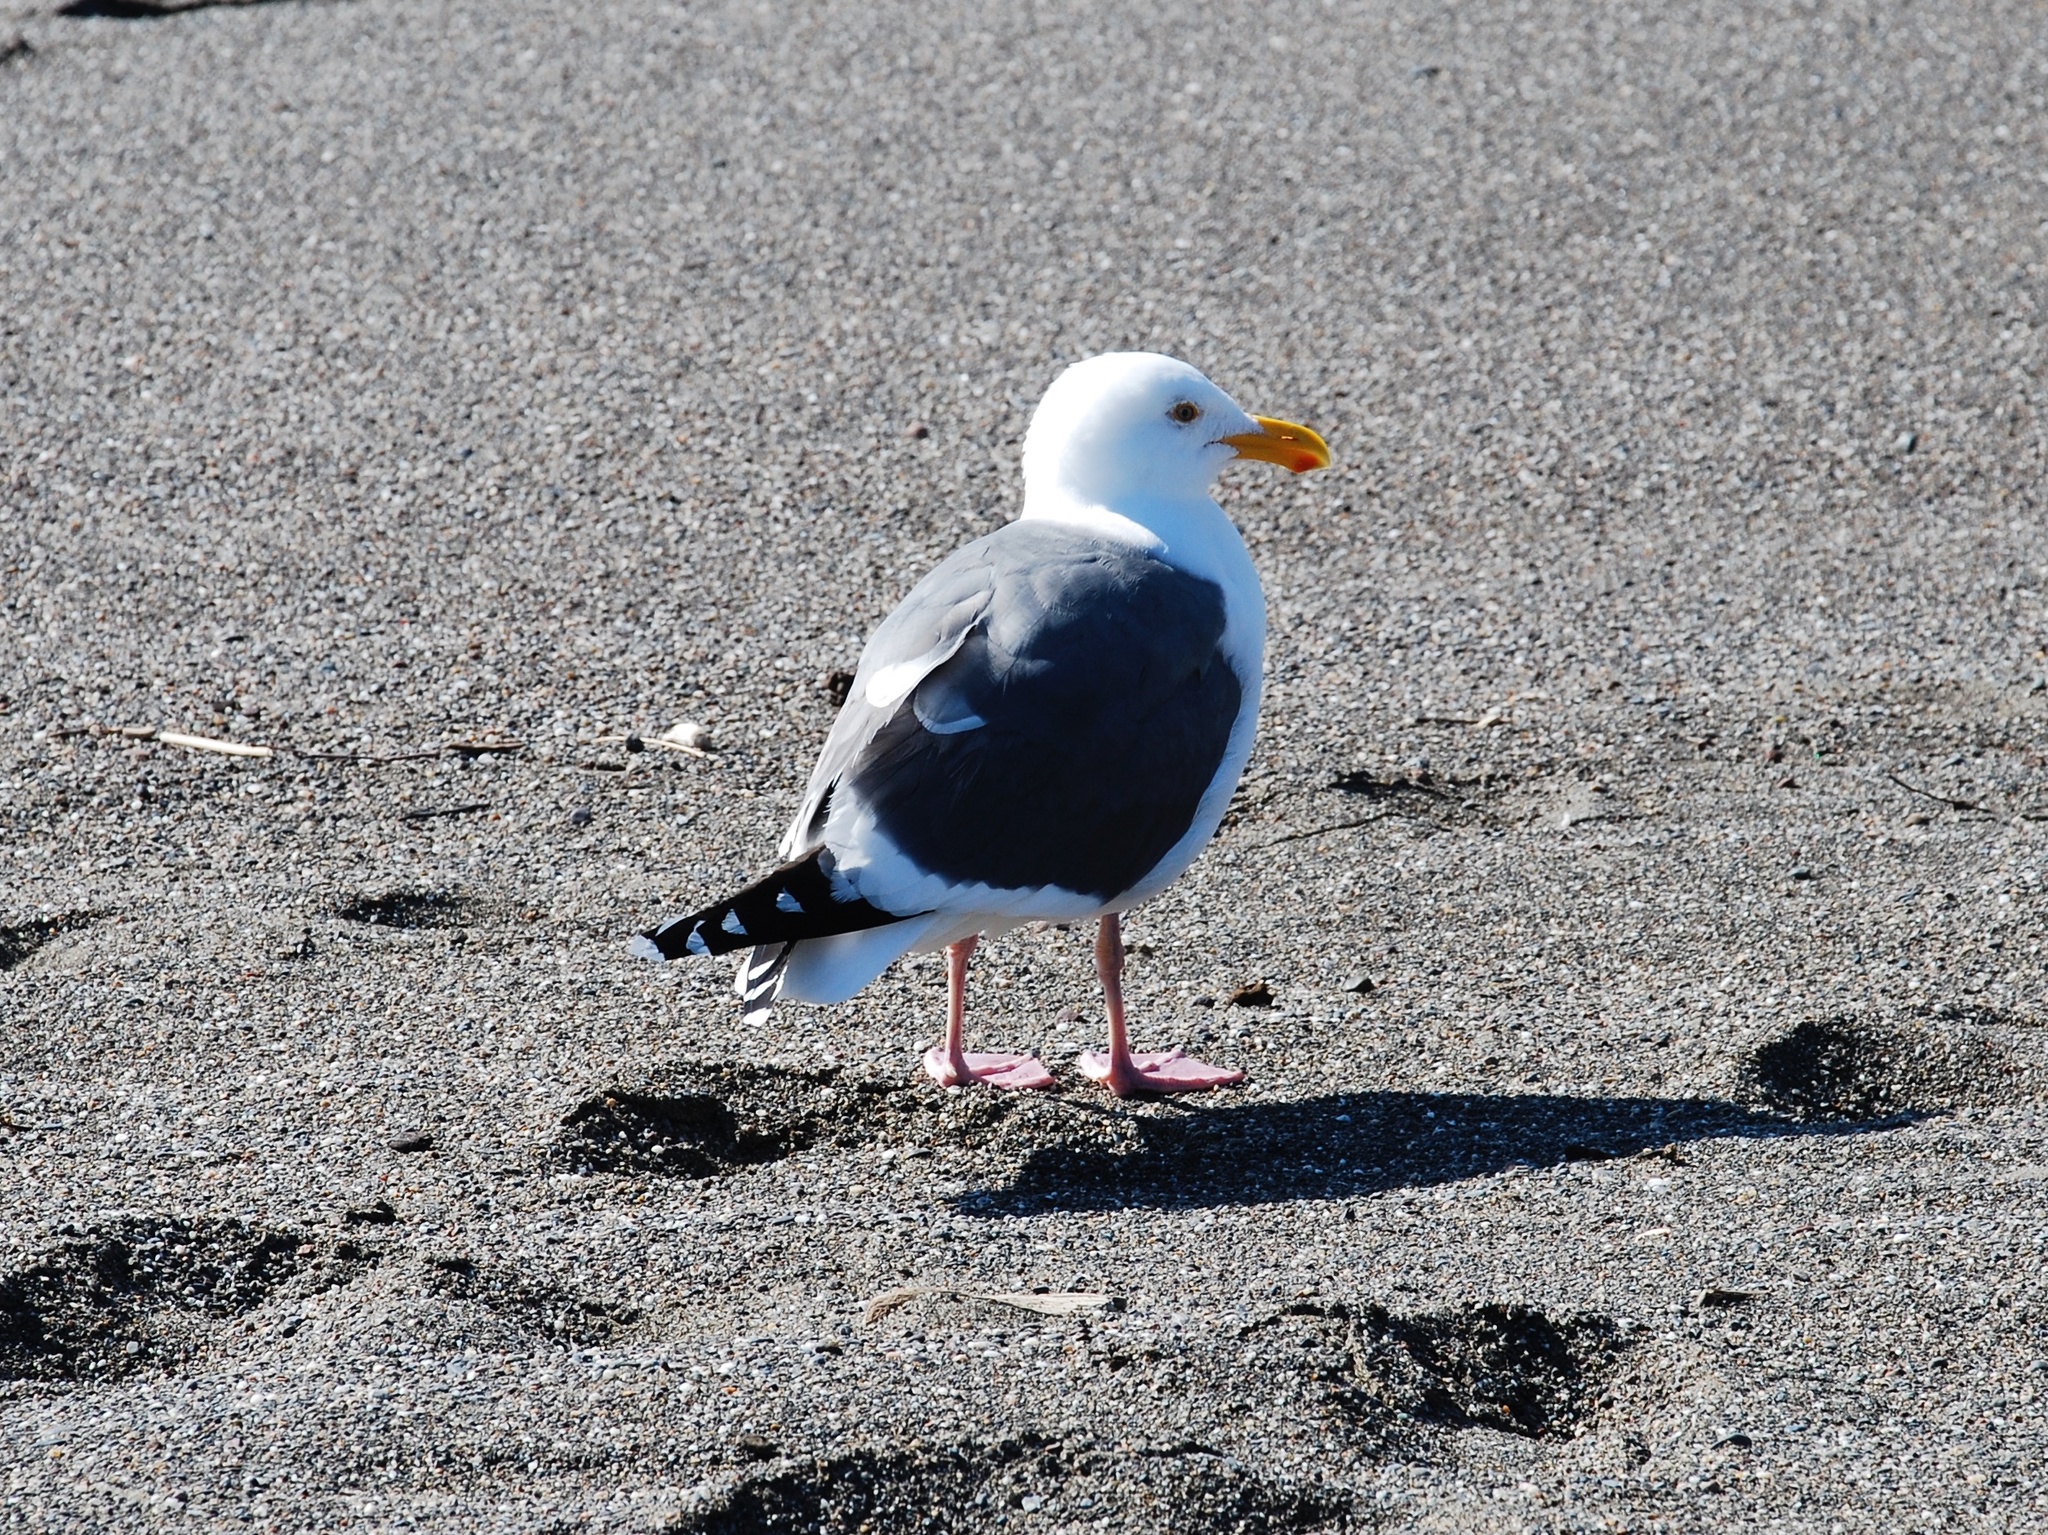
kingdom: Animalia
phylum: Chordata
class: Aves
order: Charadriiformes
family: Laridae
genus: Larus
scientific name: Larus occidentalis
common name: Western gull
